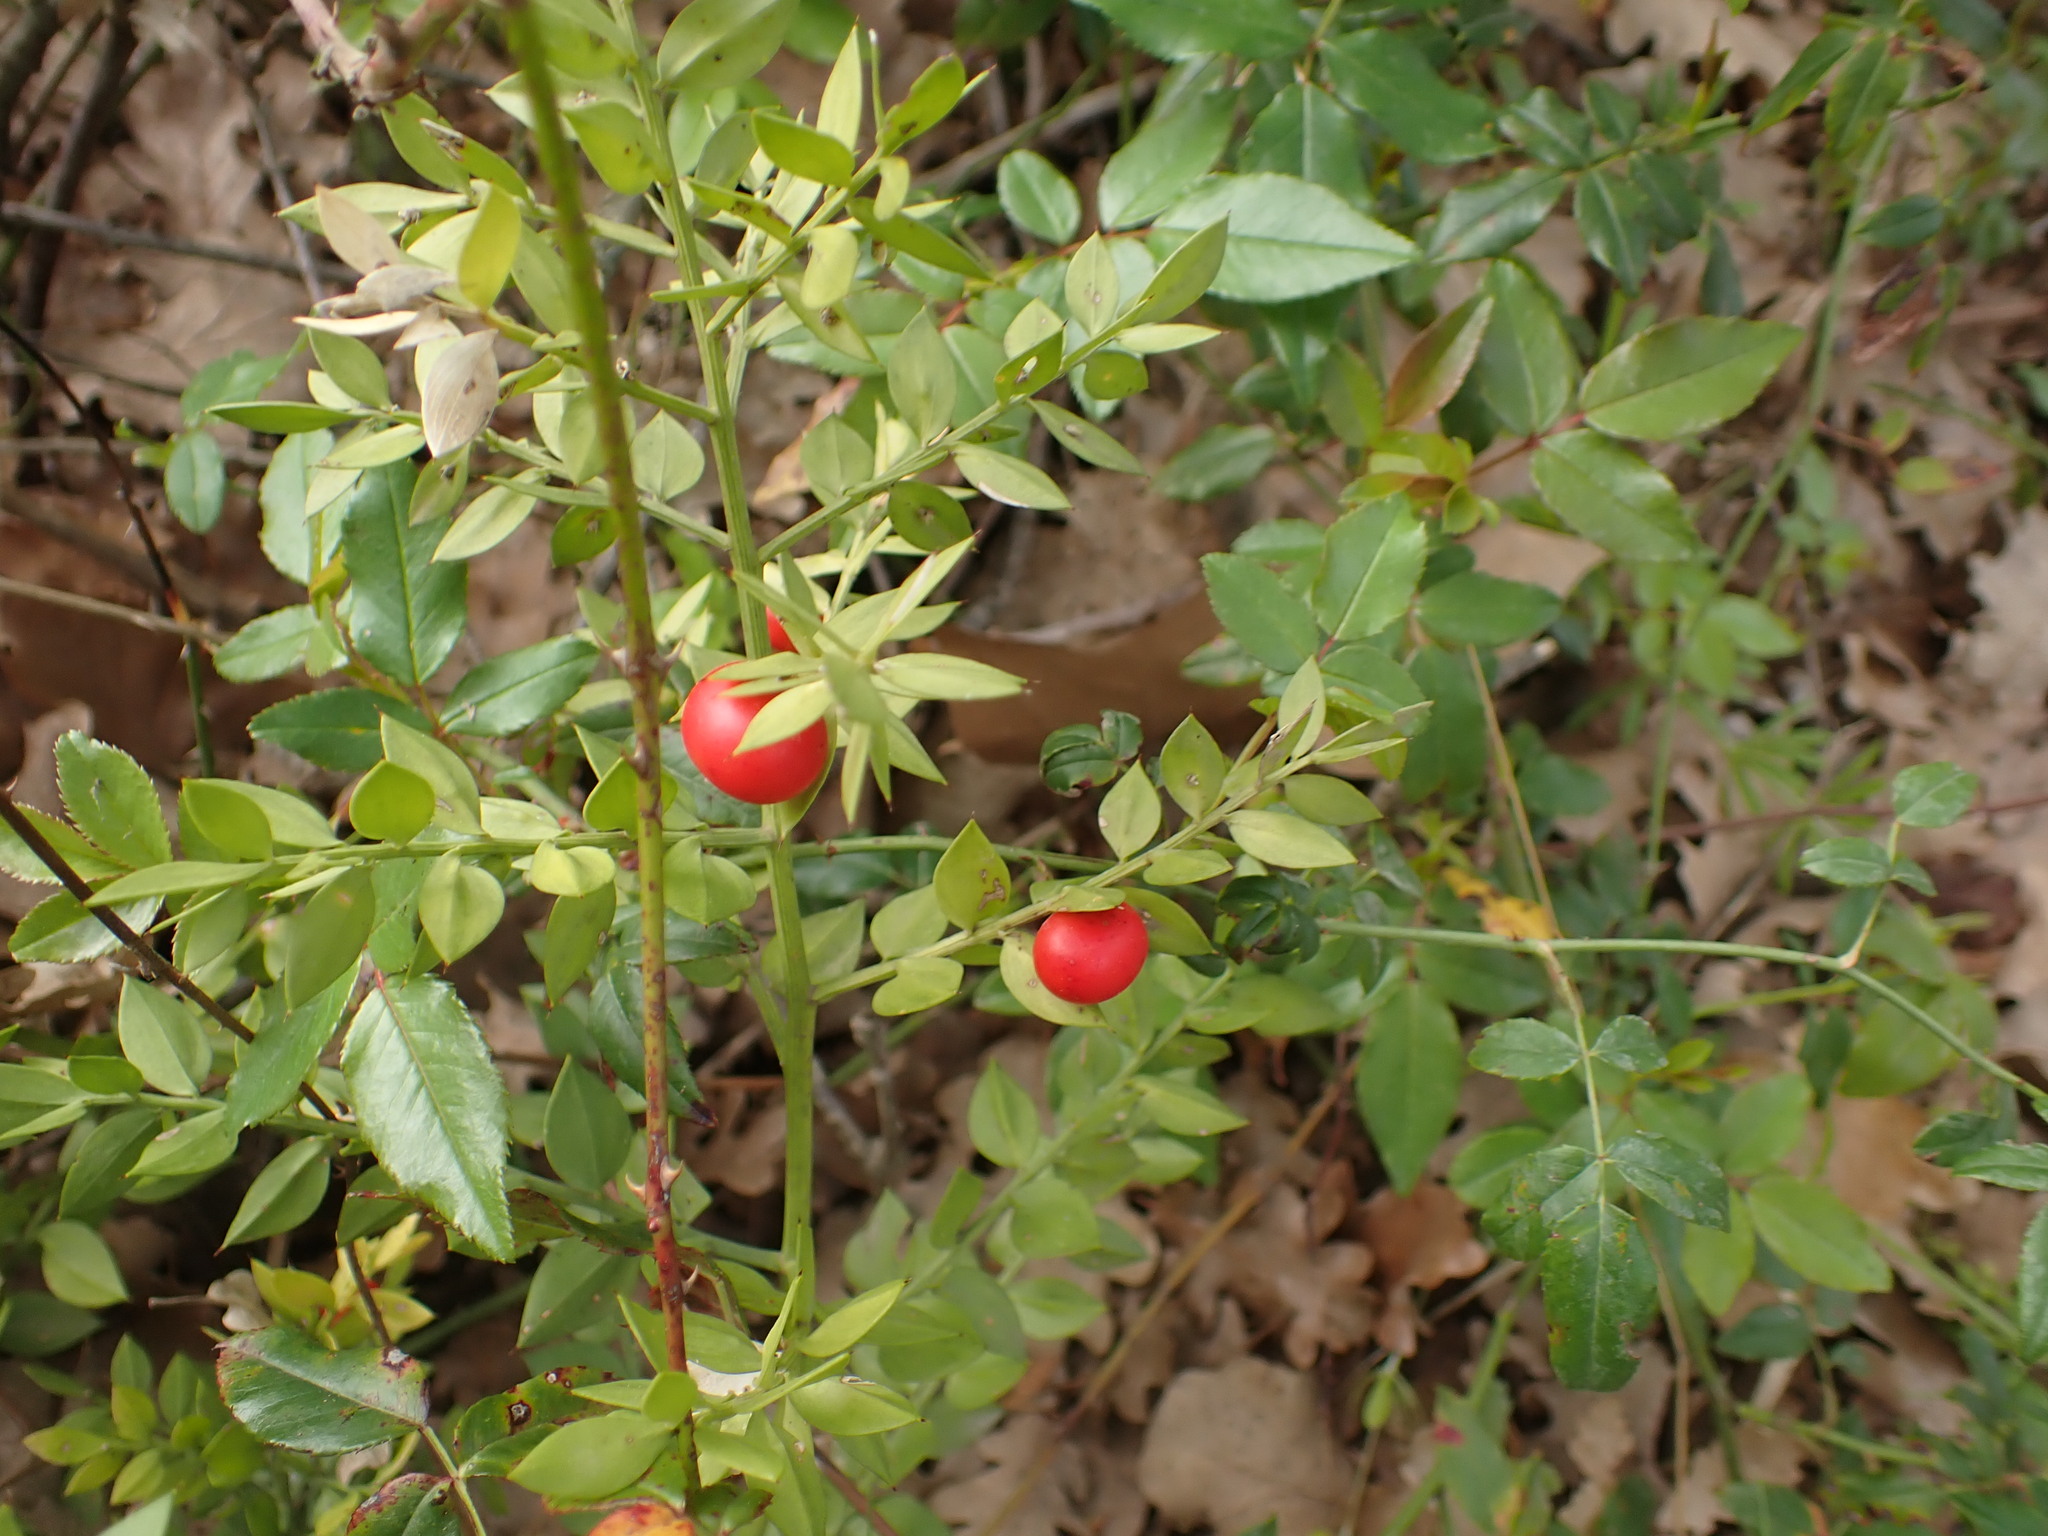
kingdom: Plantae
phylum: Tracheophyta
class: Liliopsida
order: Asparagales
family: Asparagaceae
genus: Ruscus
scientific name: Ruscus aculeatus
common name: Butcher's-broom
